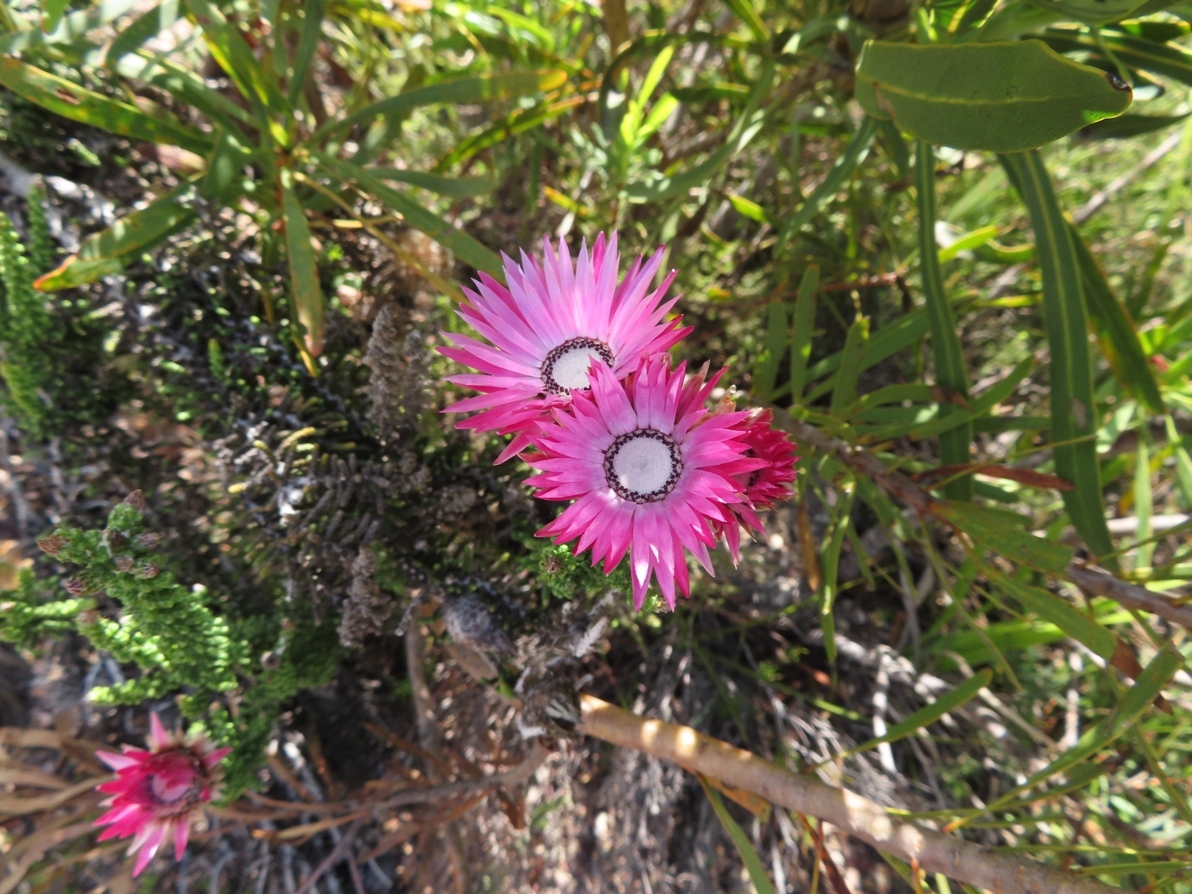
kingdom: Plantae
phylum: Tracheophyta
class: Magnoliopsida
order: Asterales
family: Asteraceae
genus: Phaenocoma
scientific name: Phaenocoma prolifera
